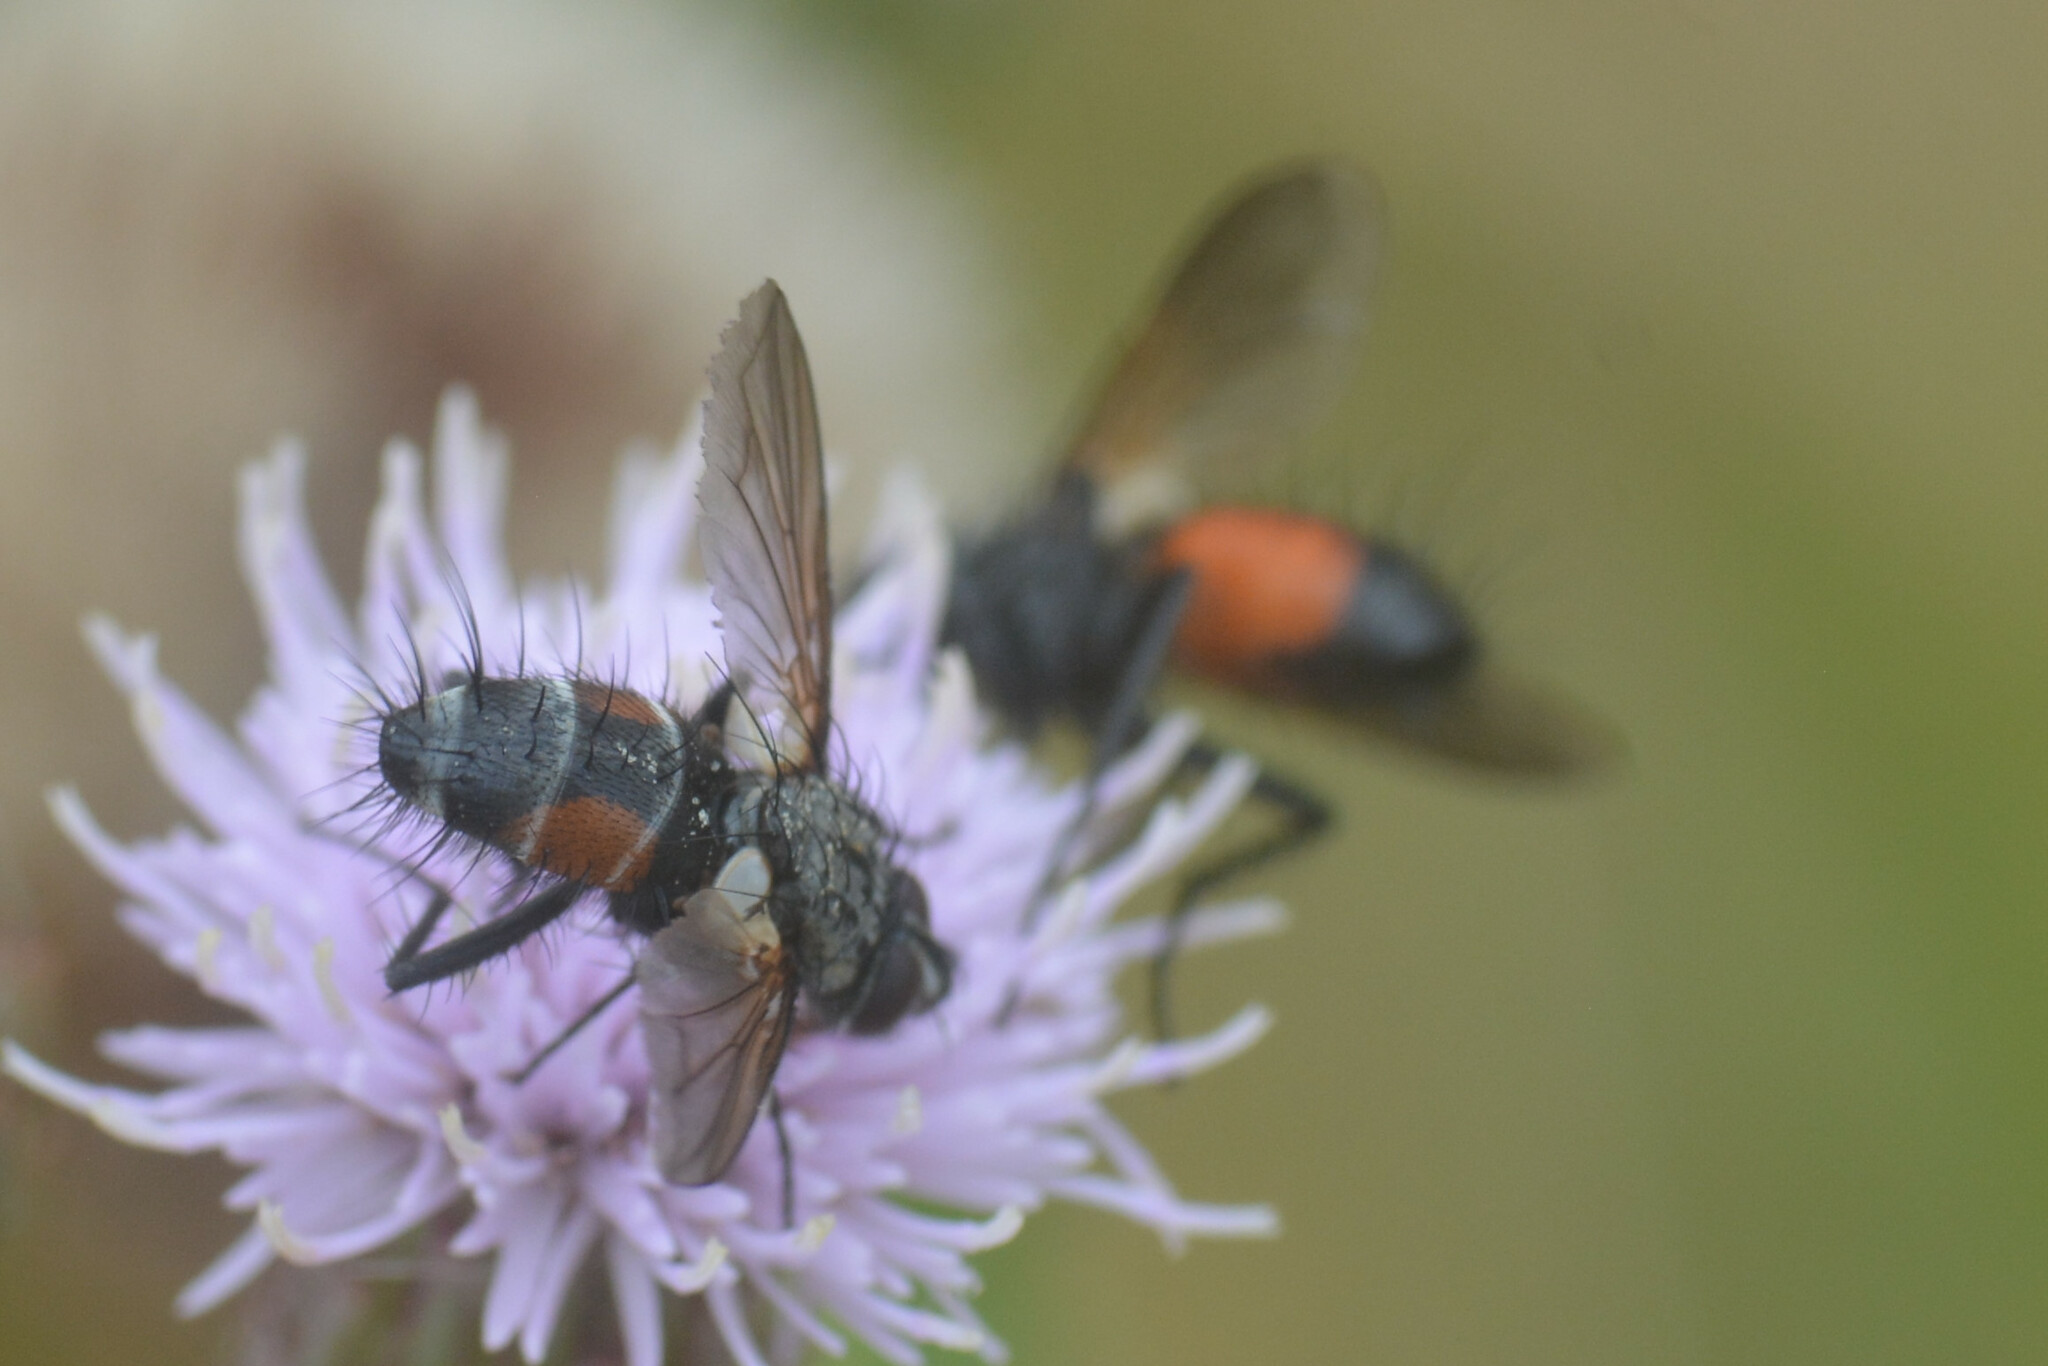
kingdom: Animalia
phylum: Arthropoda
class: Insecta
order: Diptera
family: Tachinidae
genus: Eriothrix
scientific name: Eriothrix rufomaculatus
